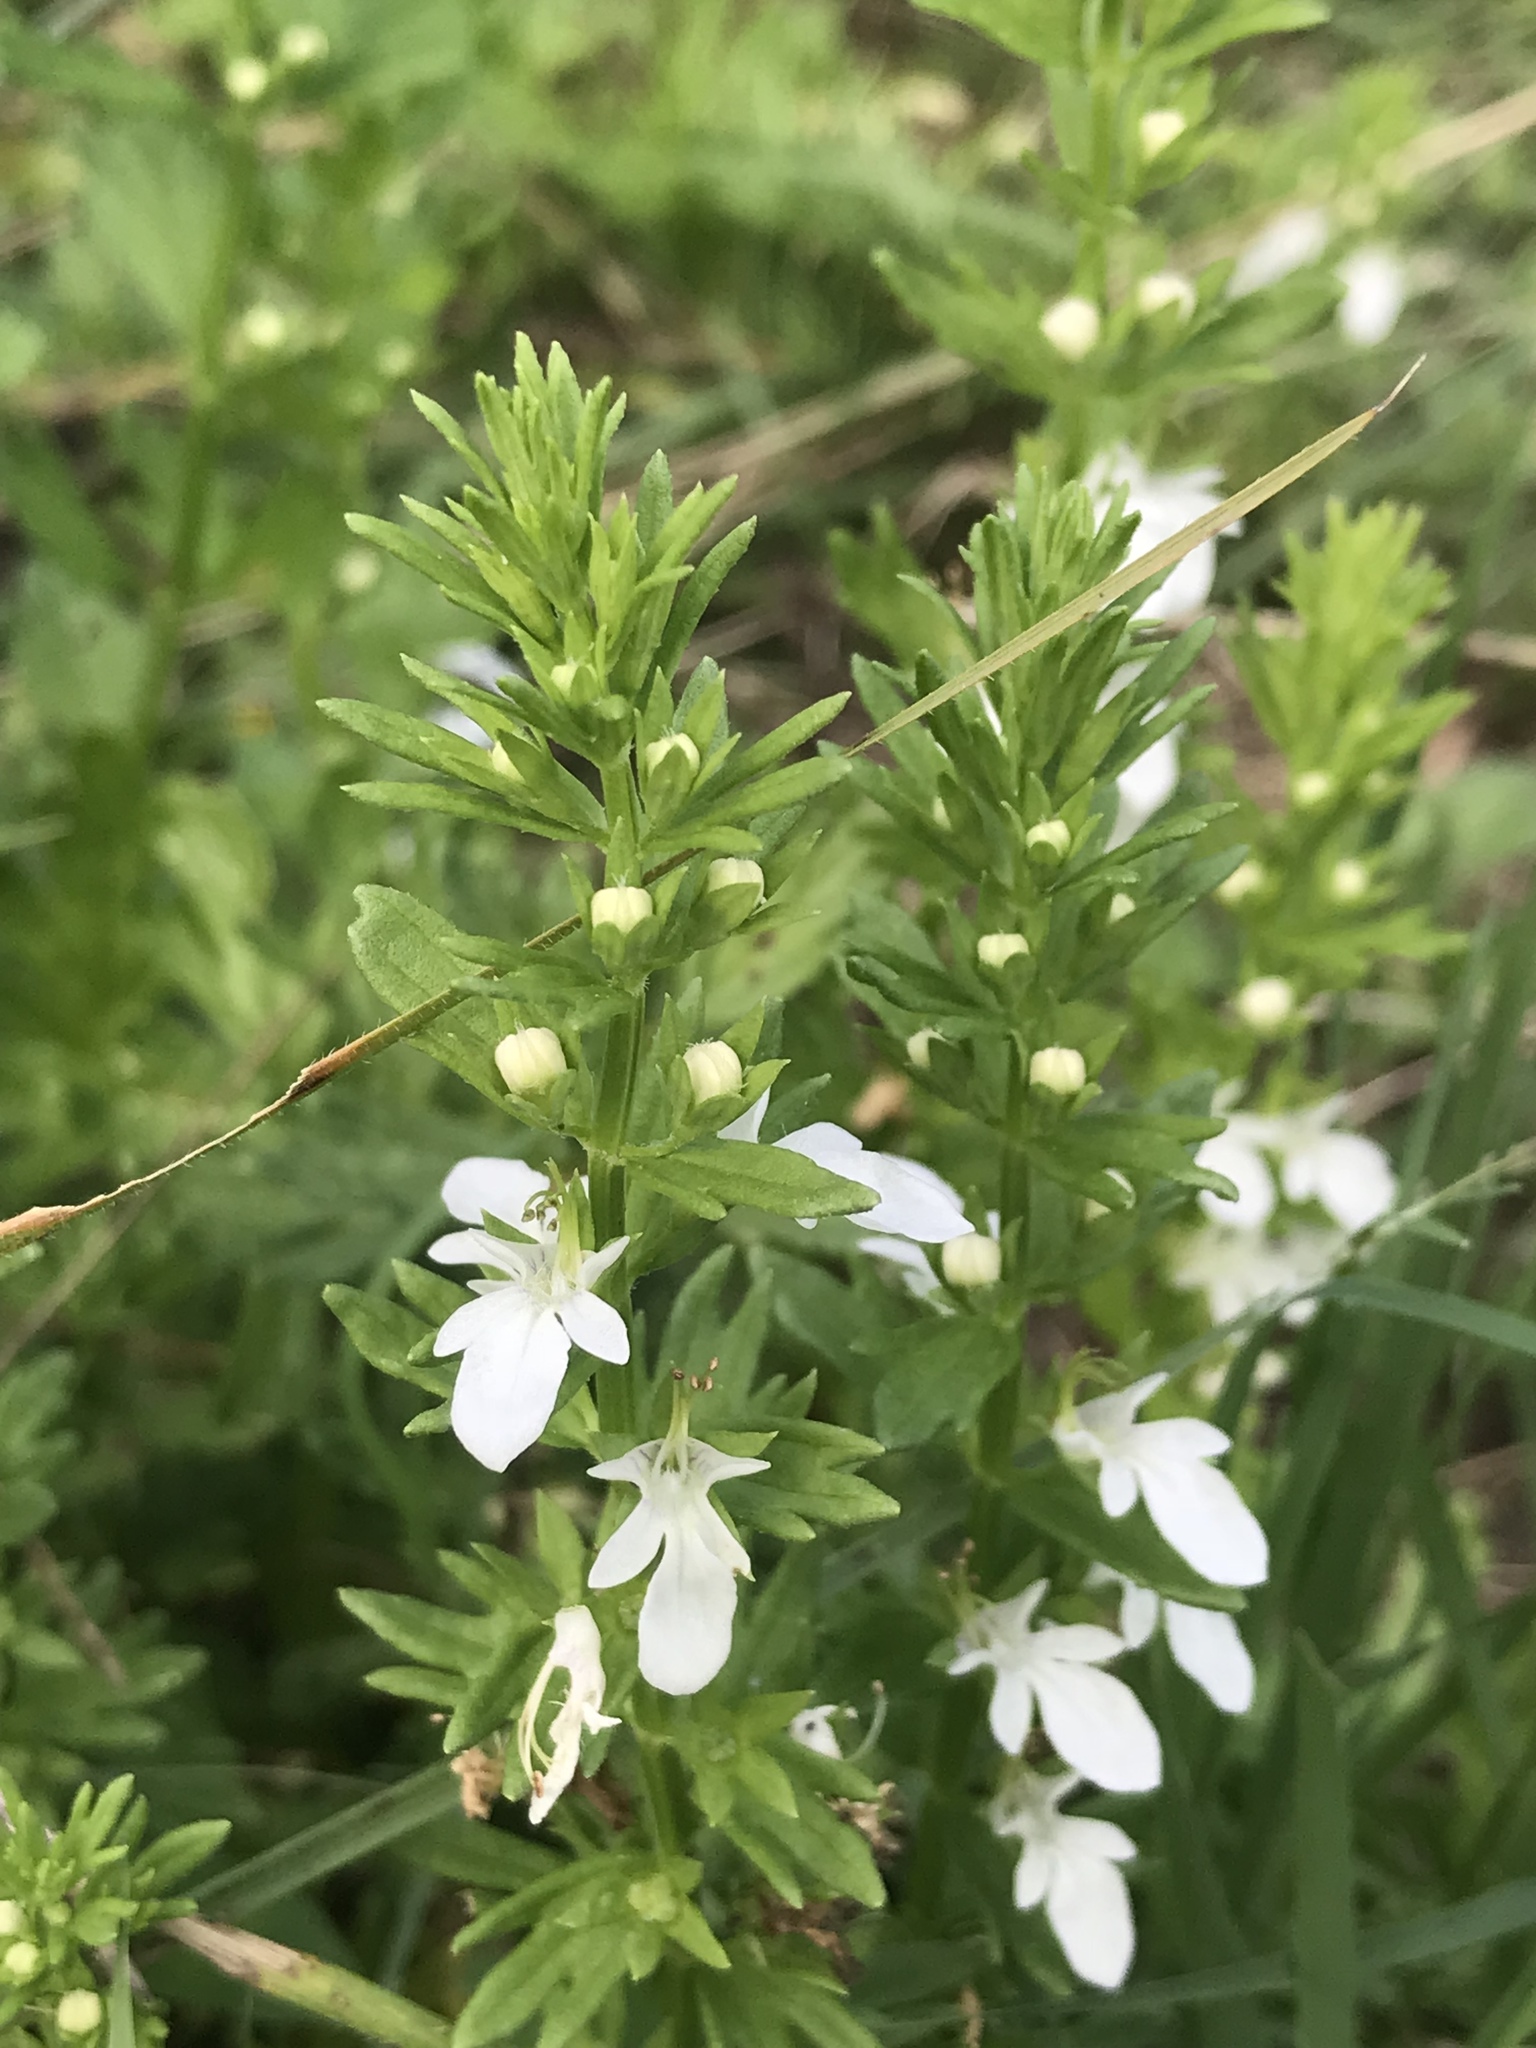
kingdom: Plantae
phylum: Tracheophyta
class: Magnoliopsida
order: Lamiales
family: Lamiaceae
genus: Teucrium
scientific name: Teucrium cubense
